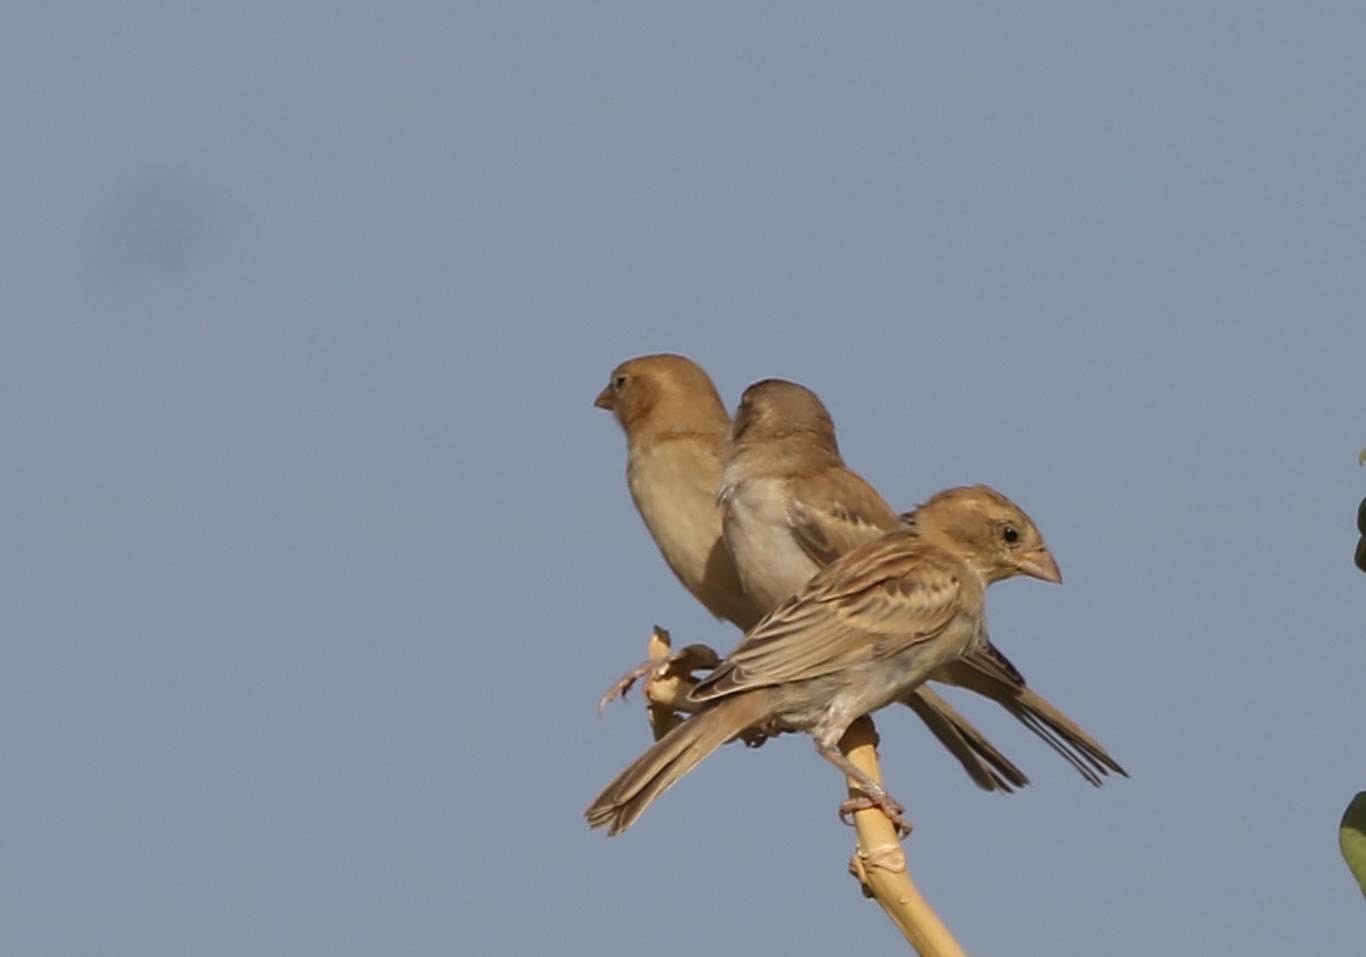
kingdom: Animalia
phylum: Chordata
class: Aves
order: Passeriformes
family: Passeridae
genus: Passer
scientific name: Passer luteus
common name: Sudan golden sparrow
